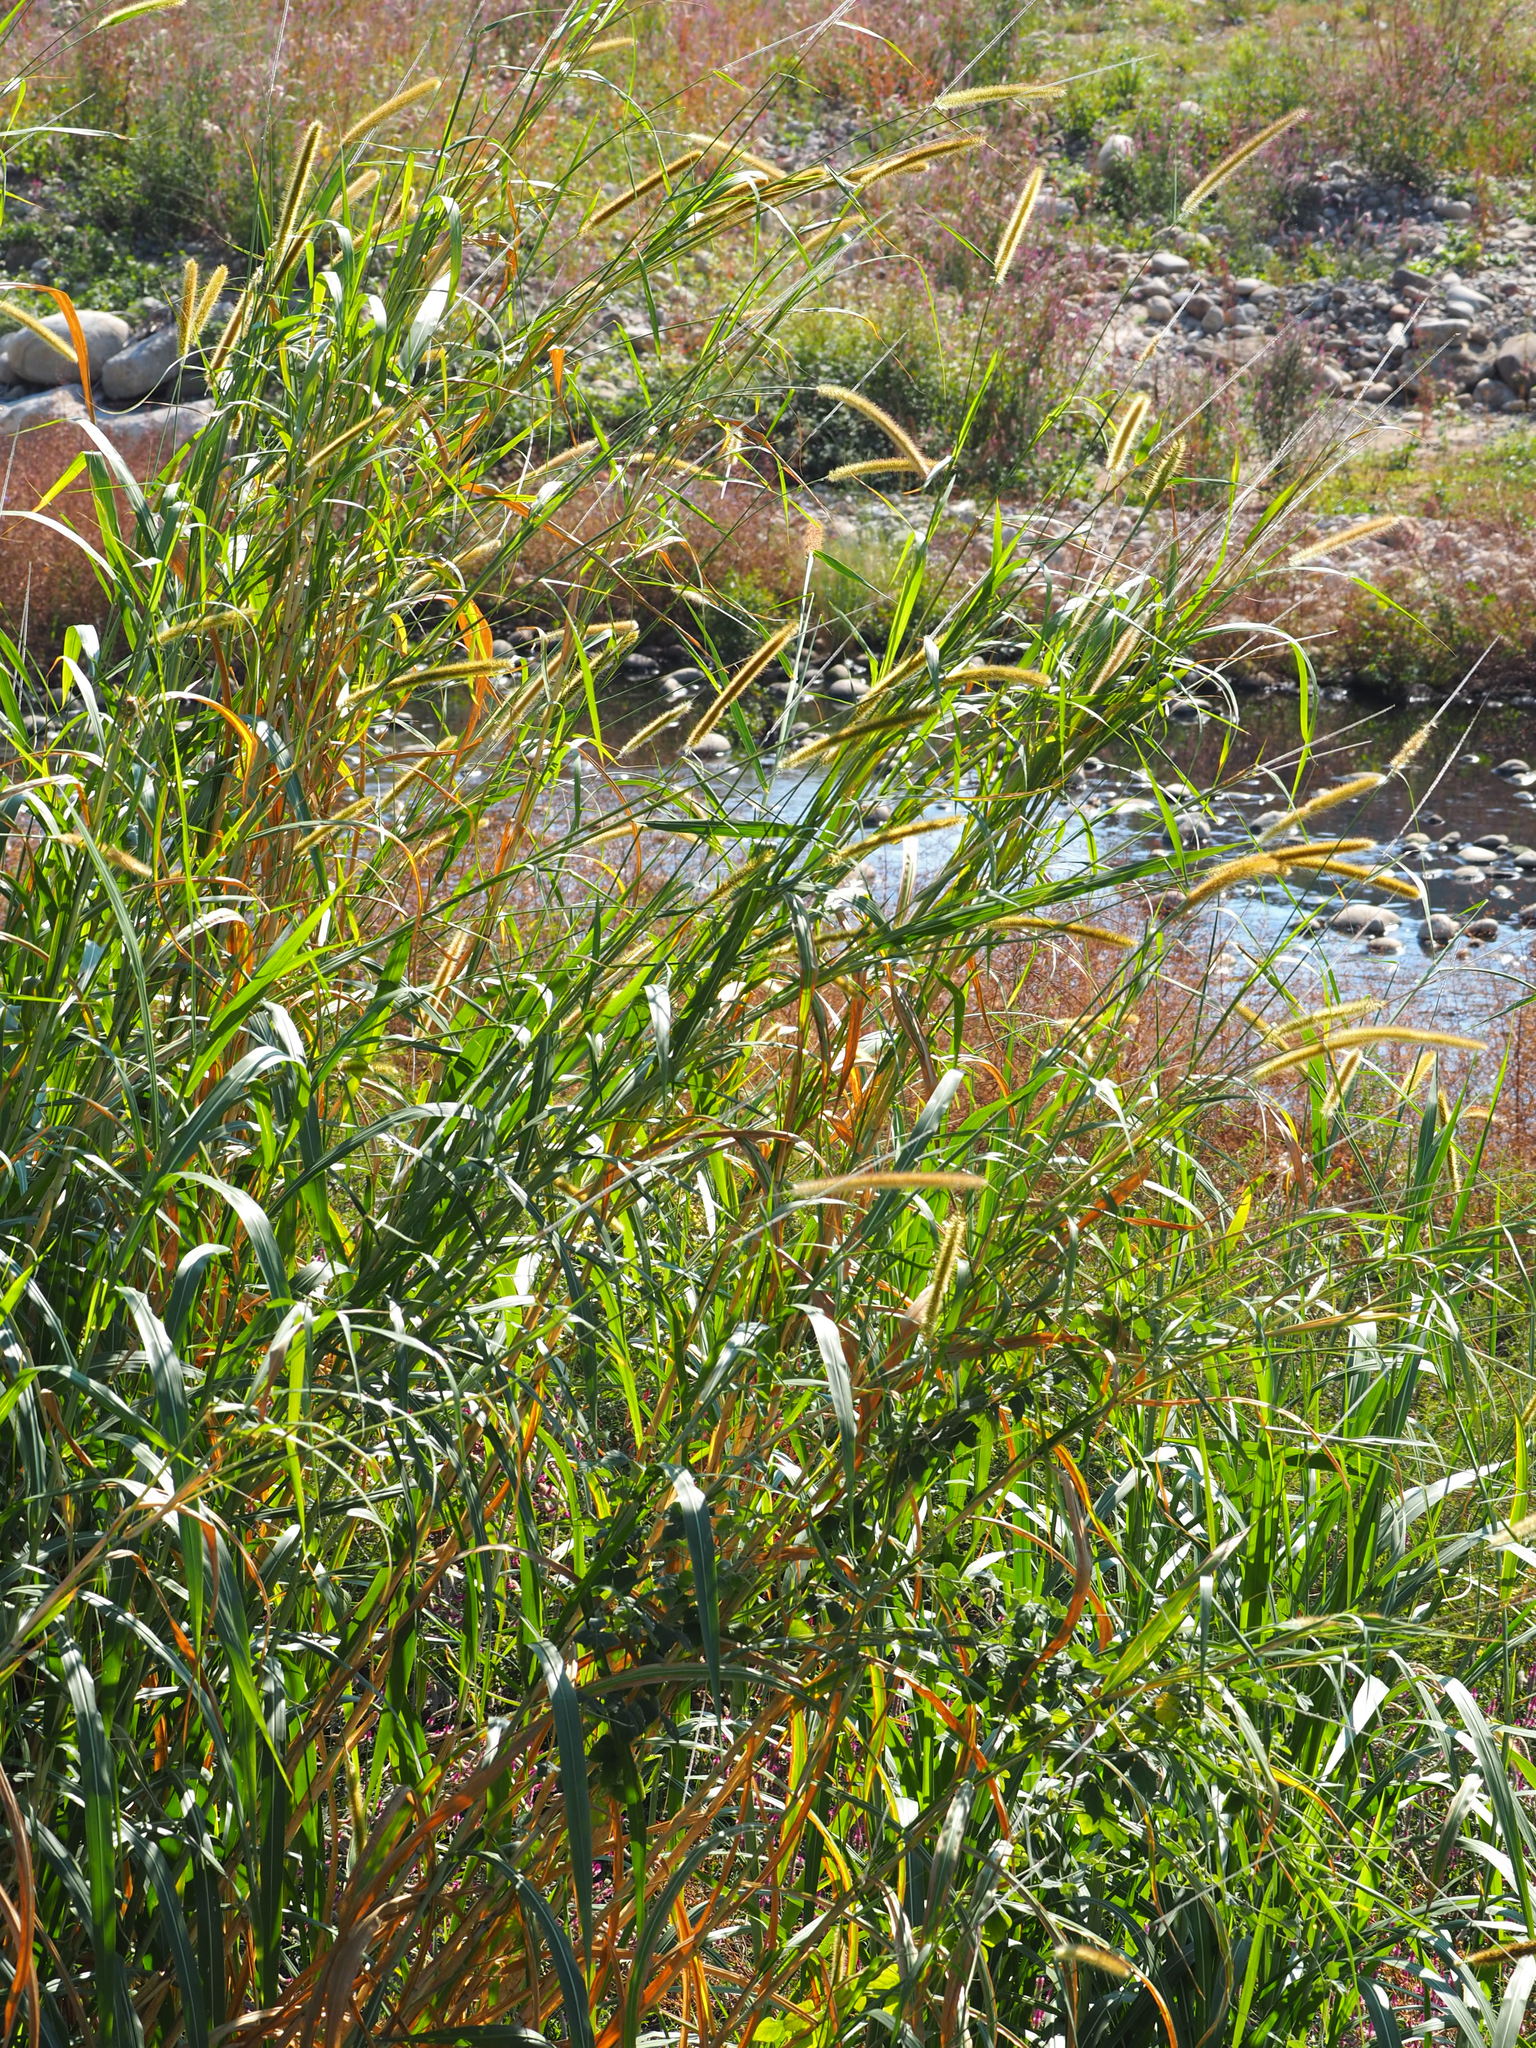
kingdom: Plantae
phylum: Tracheophyta
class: Liliopsida
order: Poales
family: Poaceae
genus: Cenchrus
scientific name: Cenchrus purpureus
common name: Elephant grass
